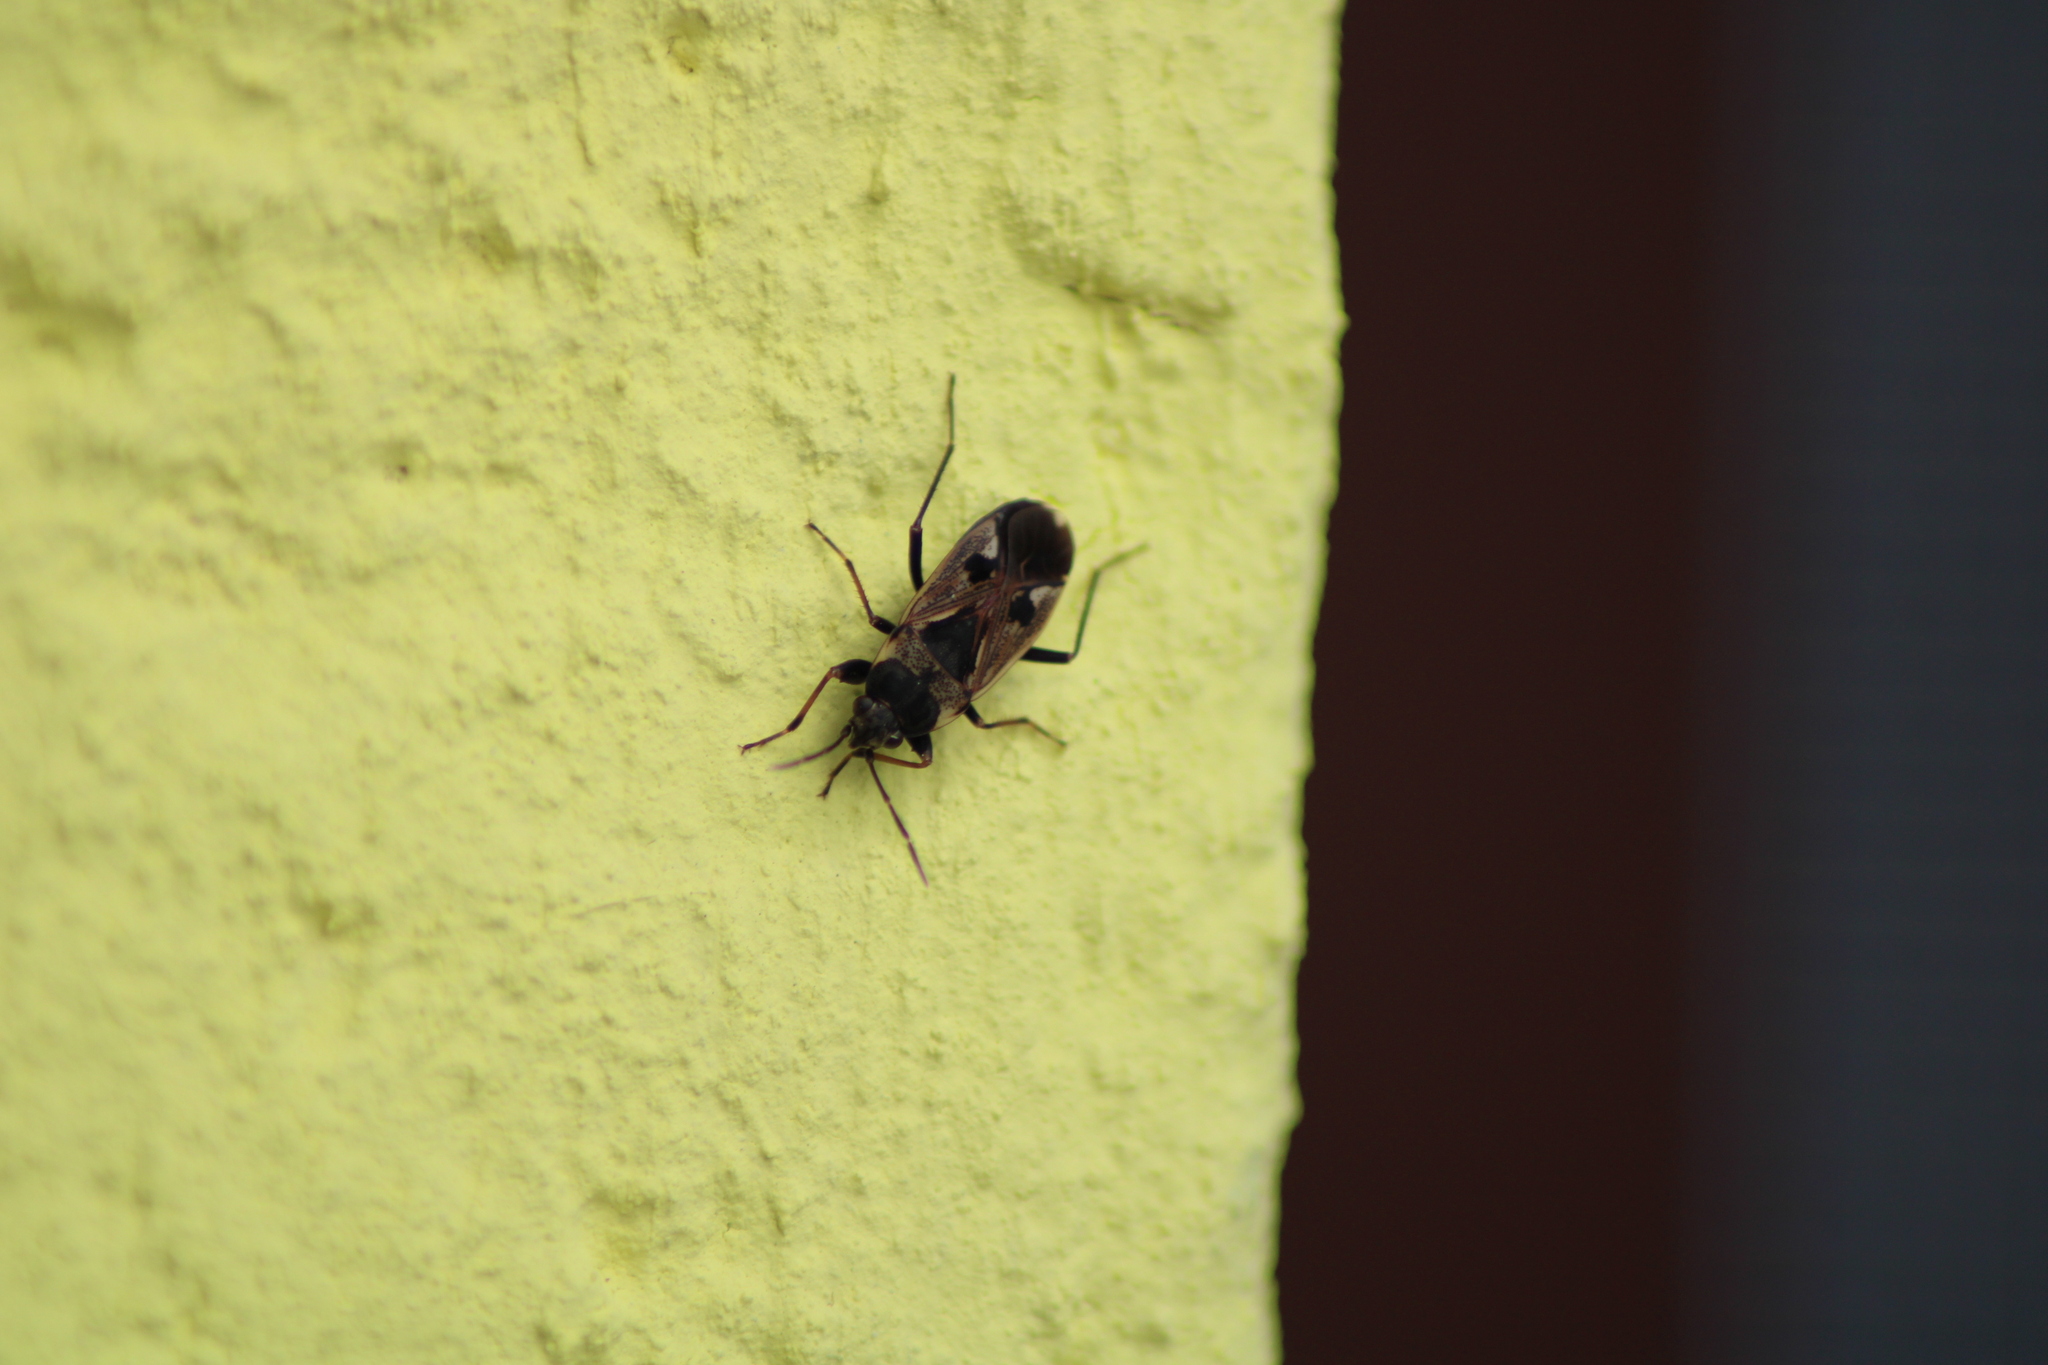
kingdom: Animalia
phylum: Arthropoda
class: Insecta
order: Hemiptera
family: Rhyparochromidae
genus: Rhyparochromus
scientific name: Rhyparochromus vulgaris
